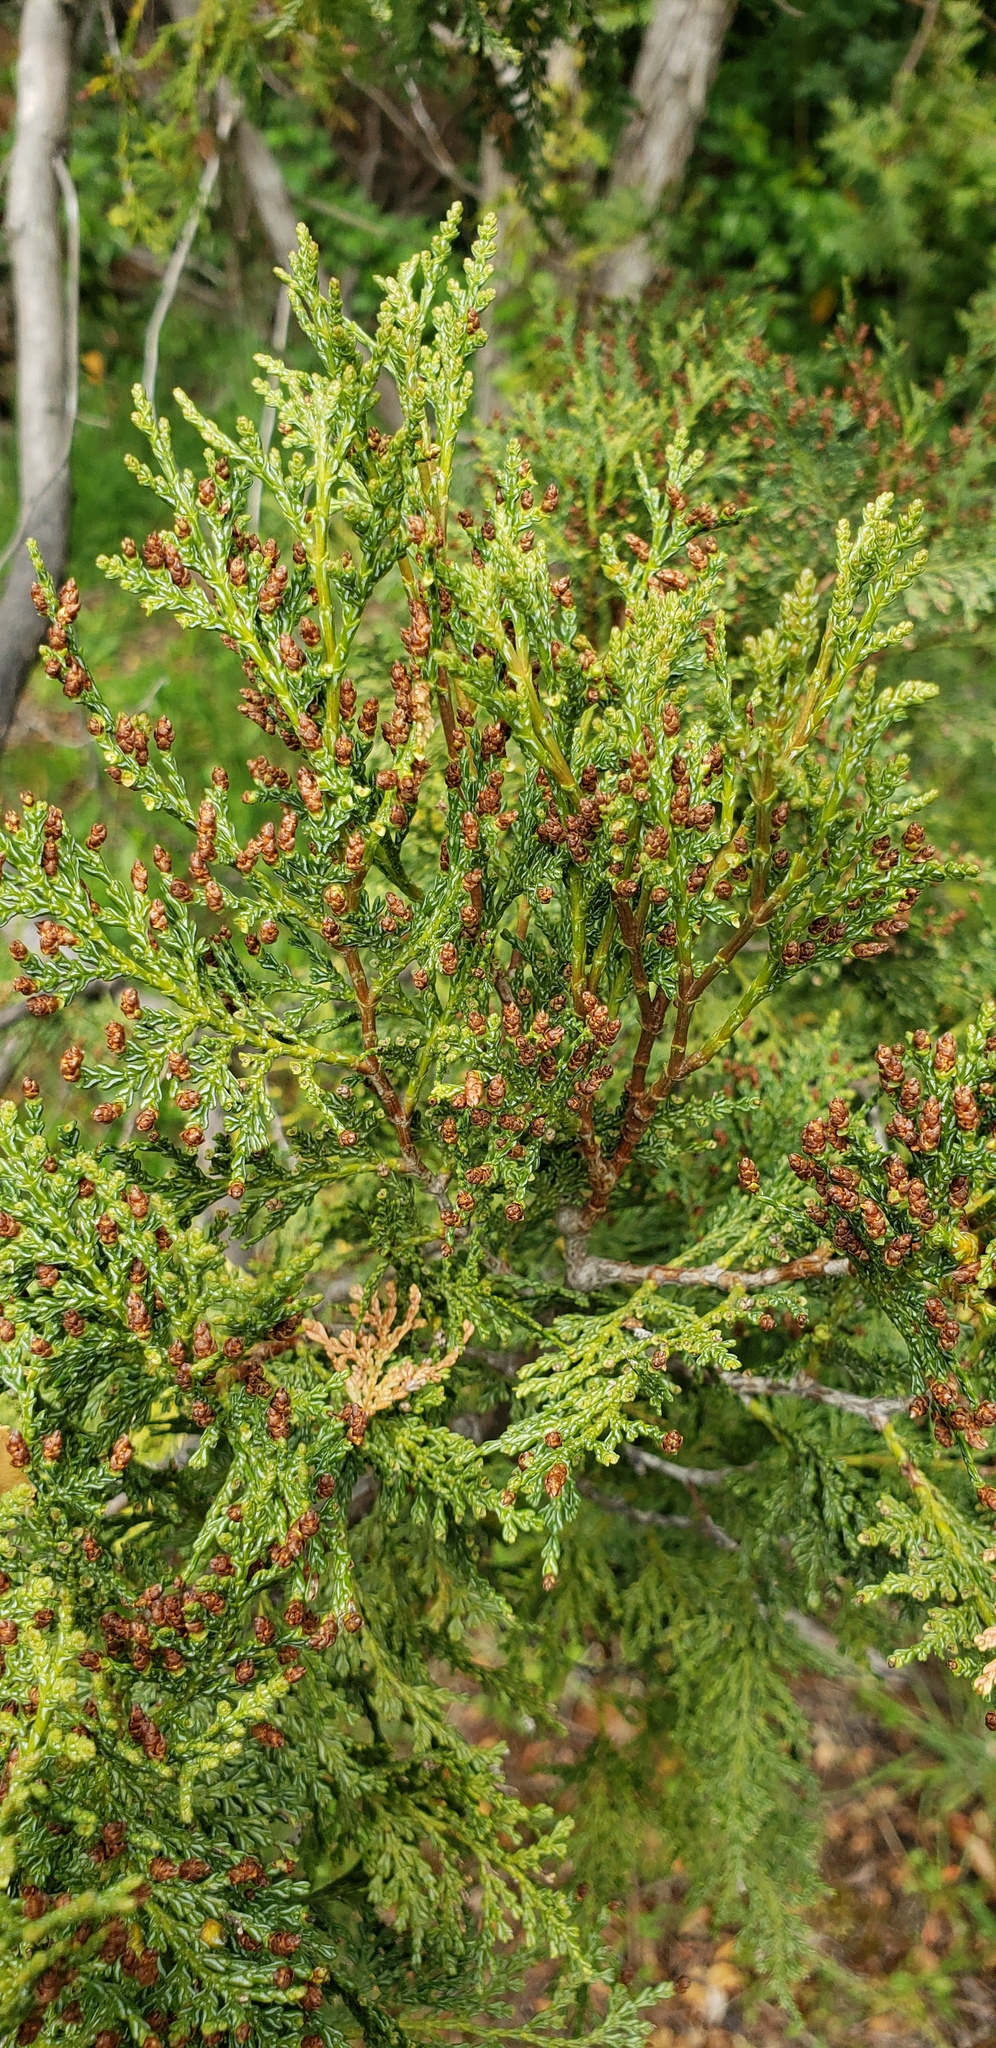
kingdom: Plantae
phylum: Tracheophyta
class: Pinopsida
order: Pinales
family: Cupressaceae
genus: Austrocedrus
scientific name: Austrocedrus chilensis
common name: Chilean incense-cedar
